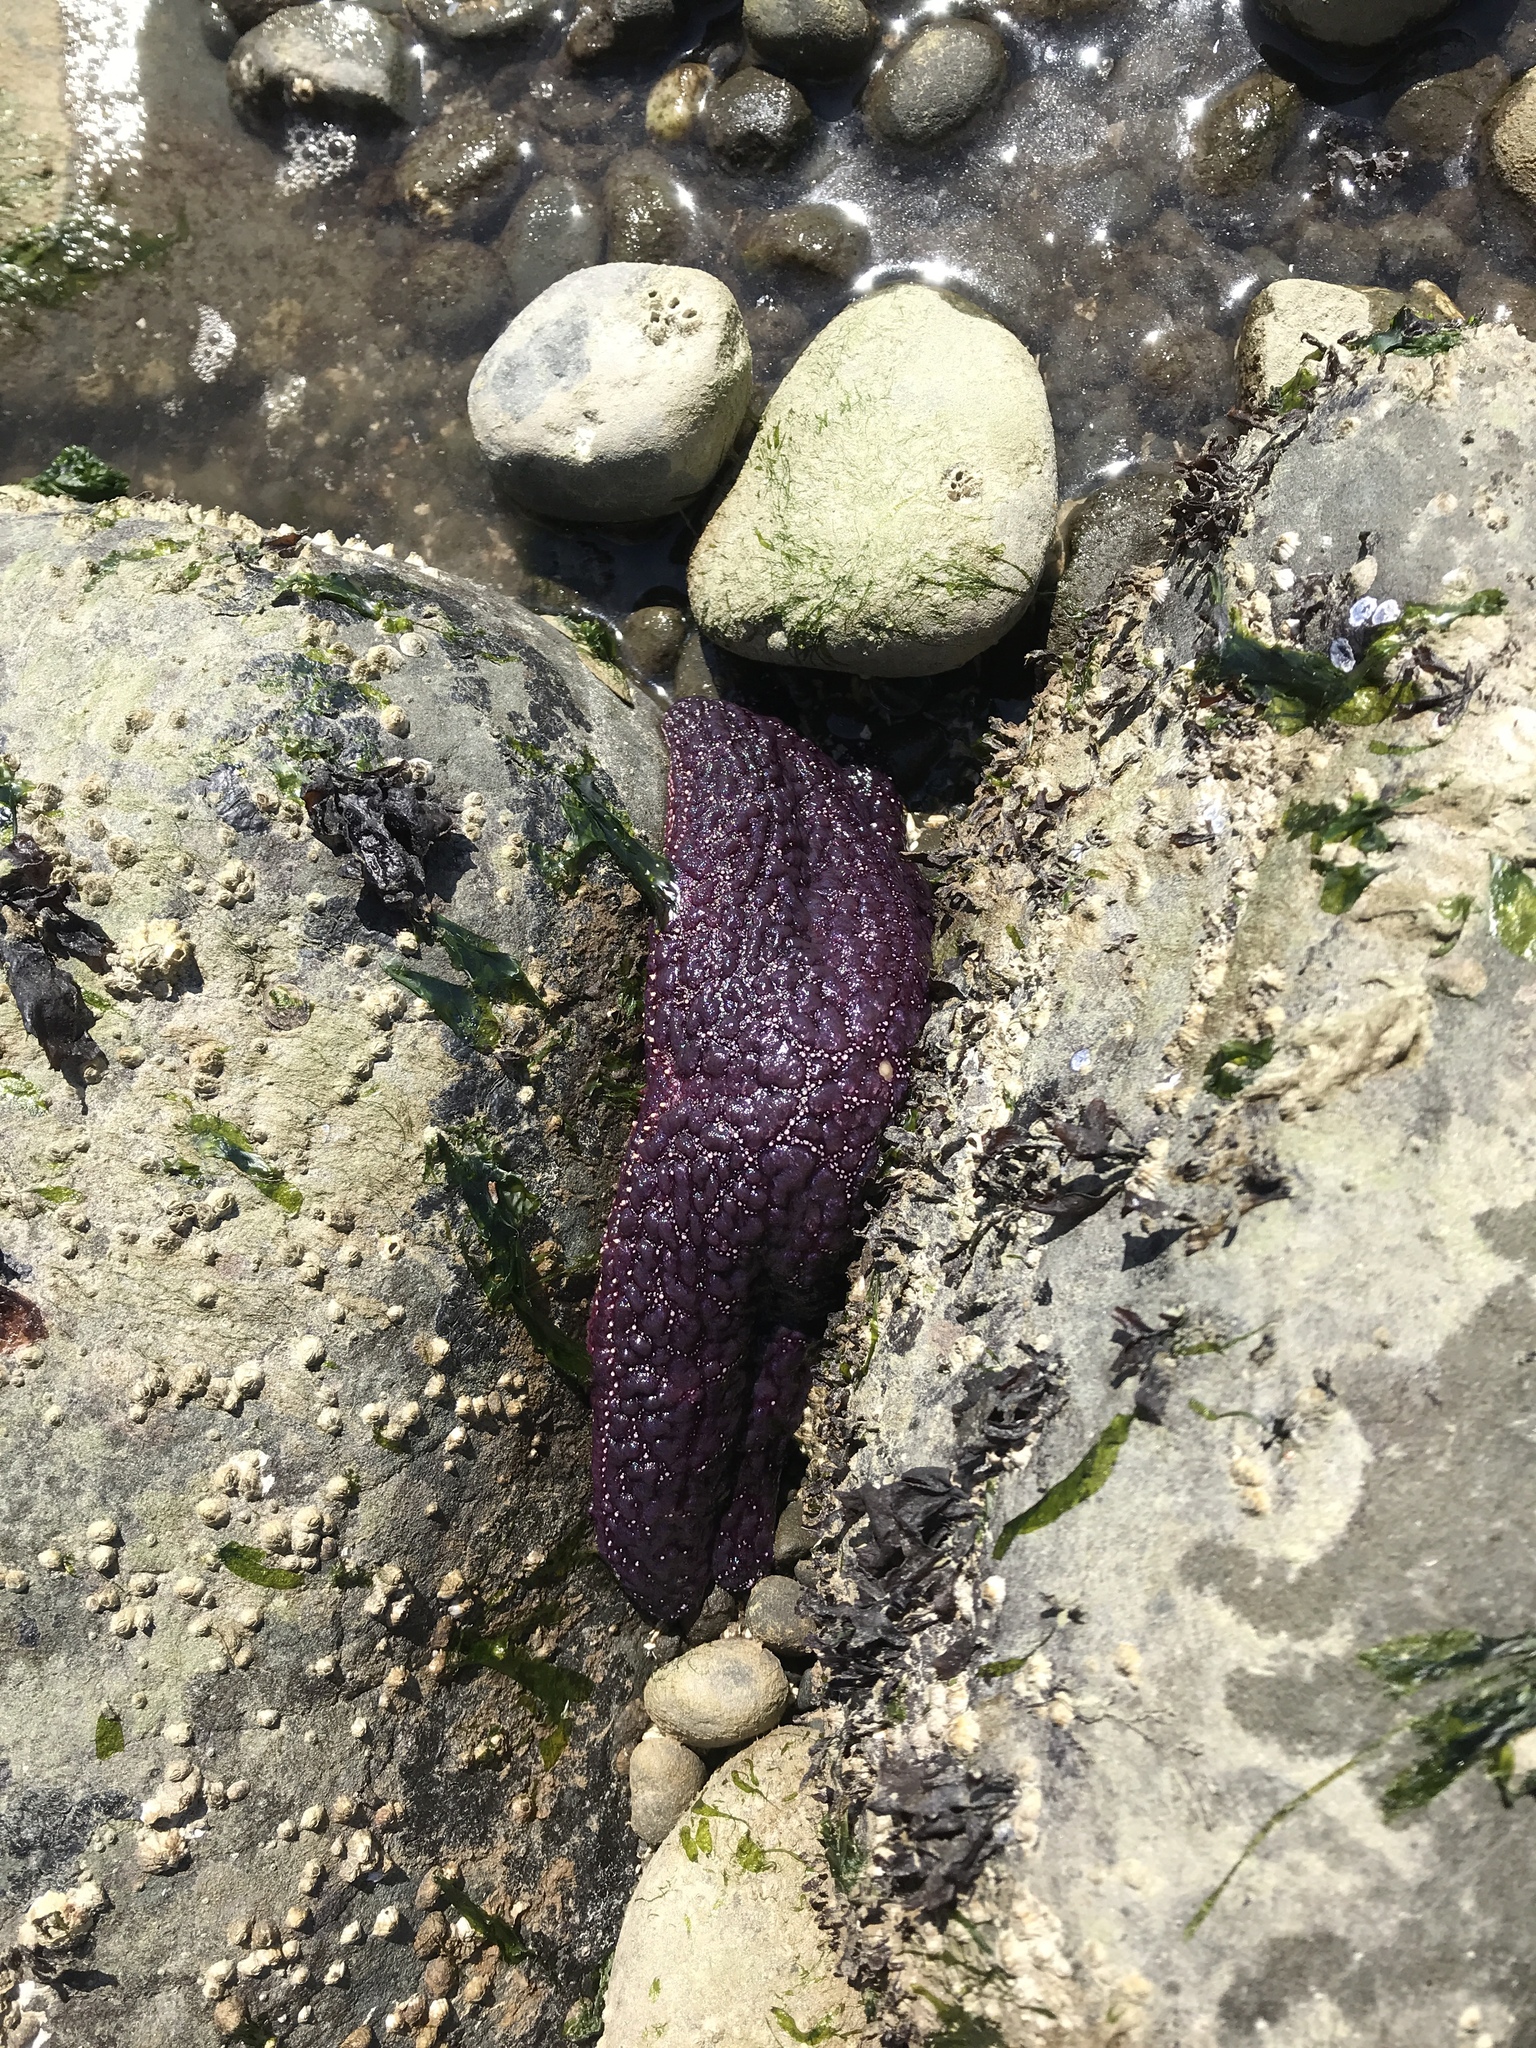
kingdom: Animalia
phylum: Echinodermata
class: Asteroidea
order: Forcipulatida
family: Asteriidae
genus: Pisaster
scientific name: Pisaster ochraceus
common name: Ochre stars
